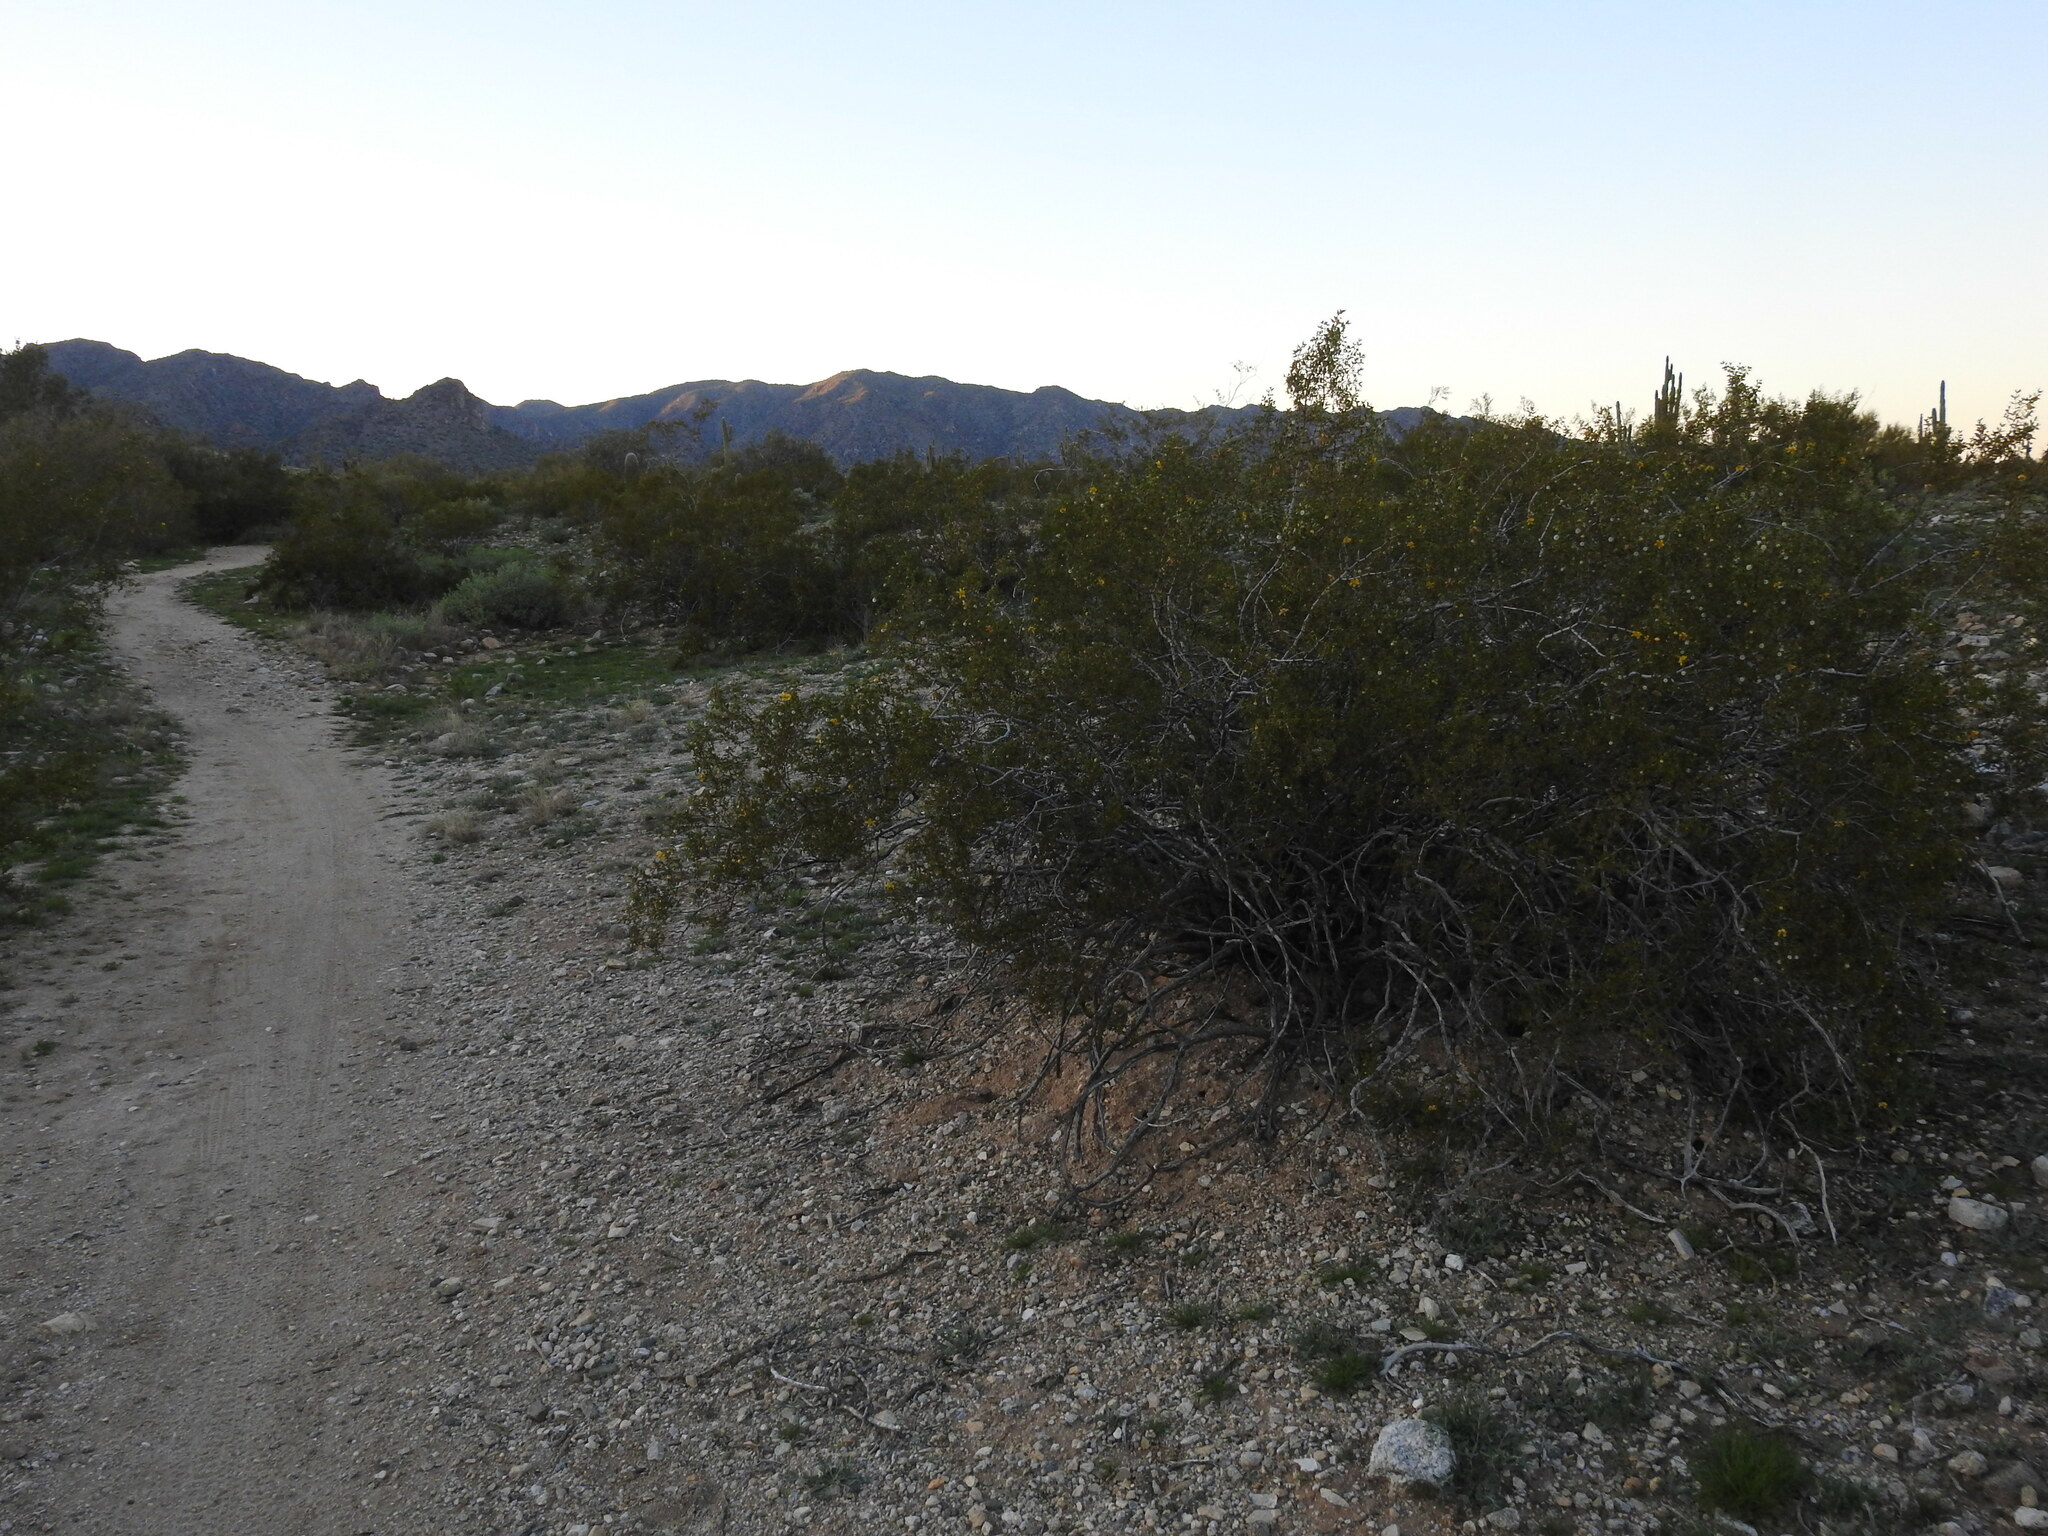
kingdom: Plantae
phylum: Tracheophyta
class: Magnoliopsida
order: Zygophyllales
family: Zygophyllaceae
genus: Larrea
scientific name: Larrea tridentata
